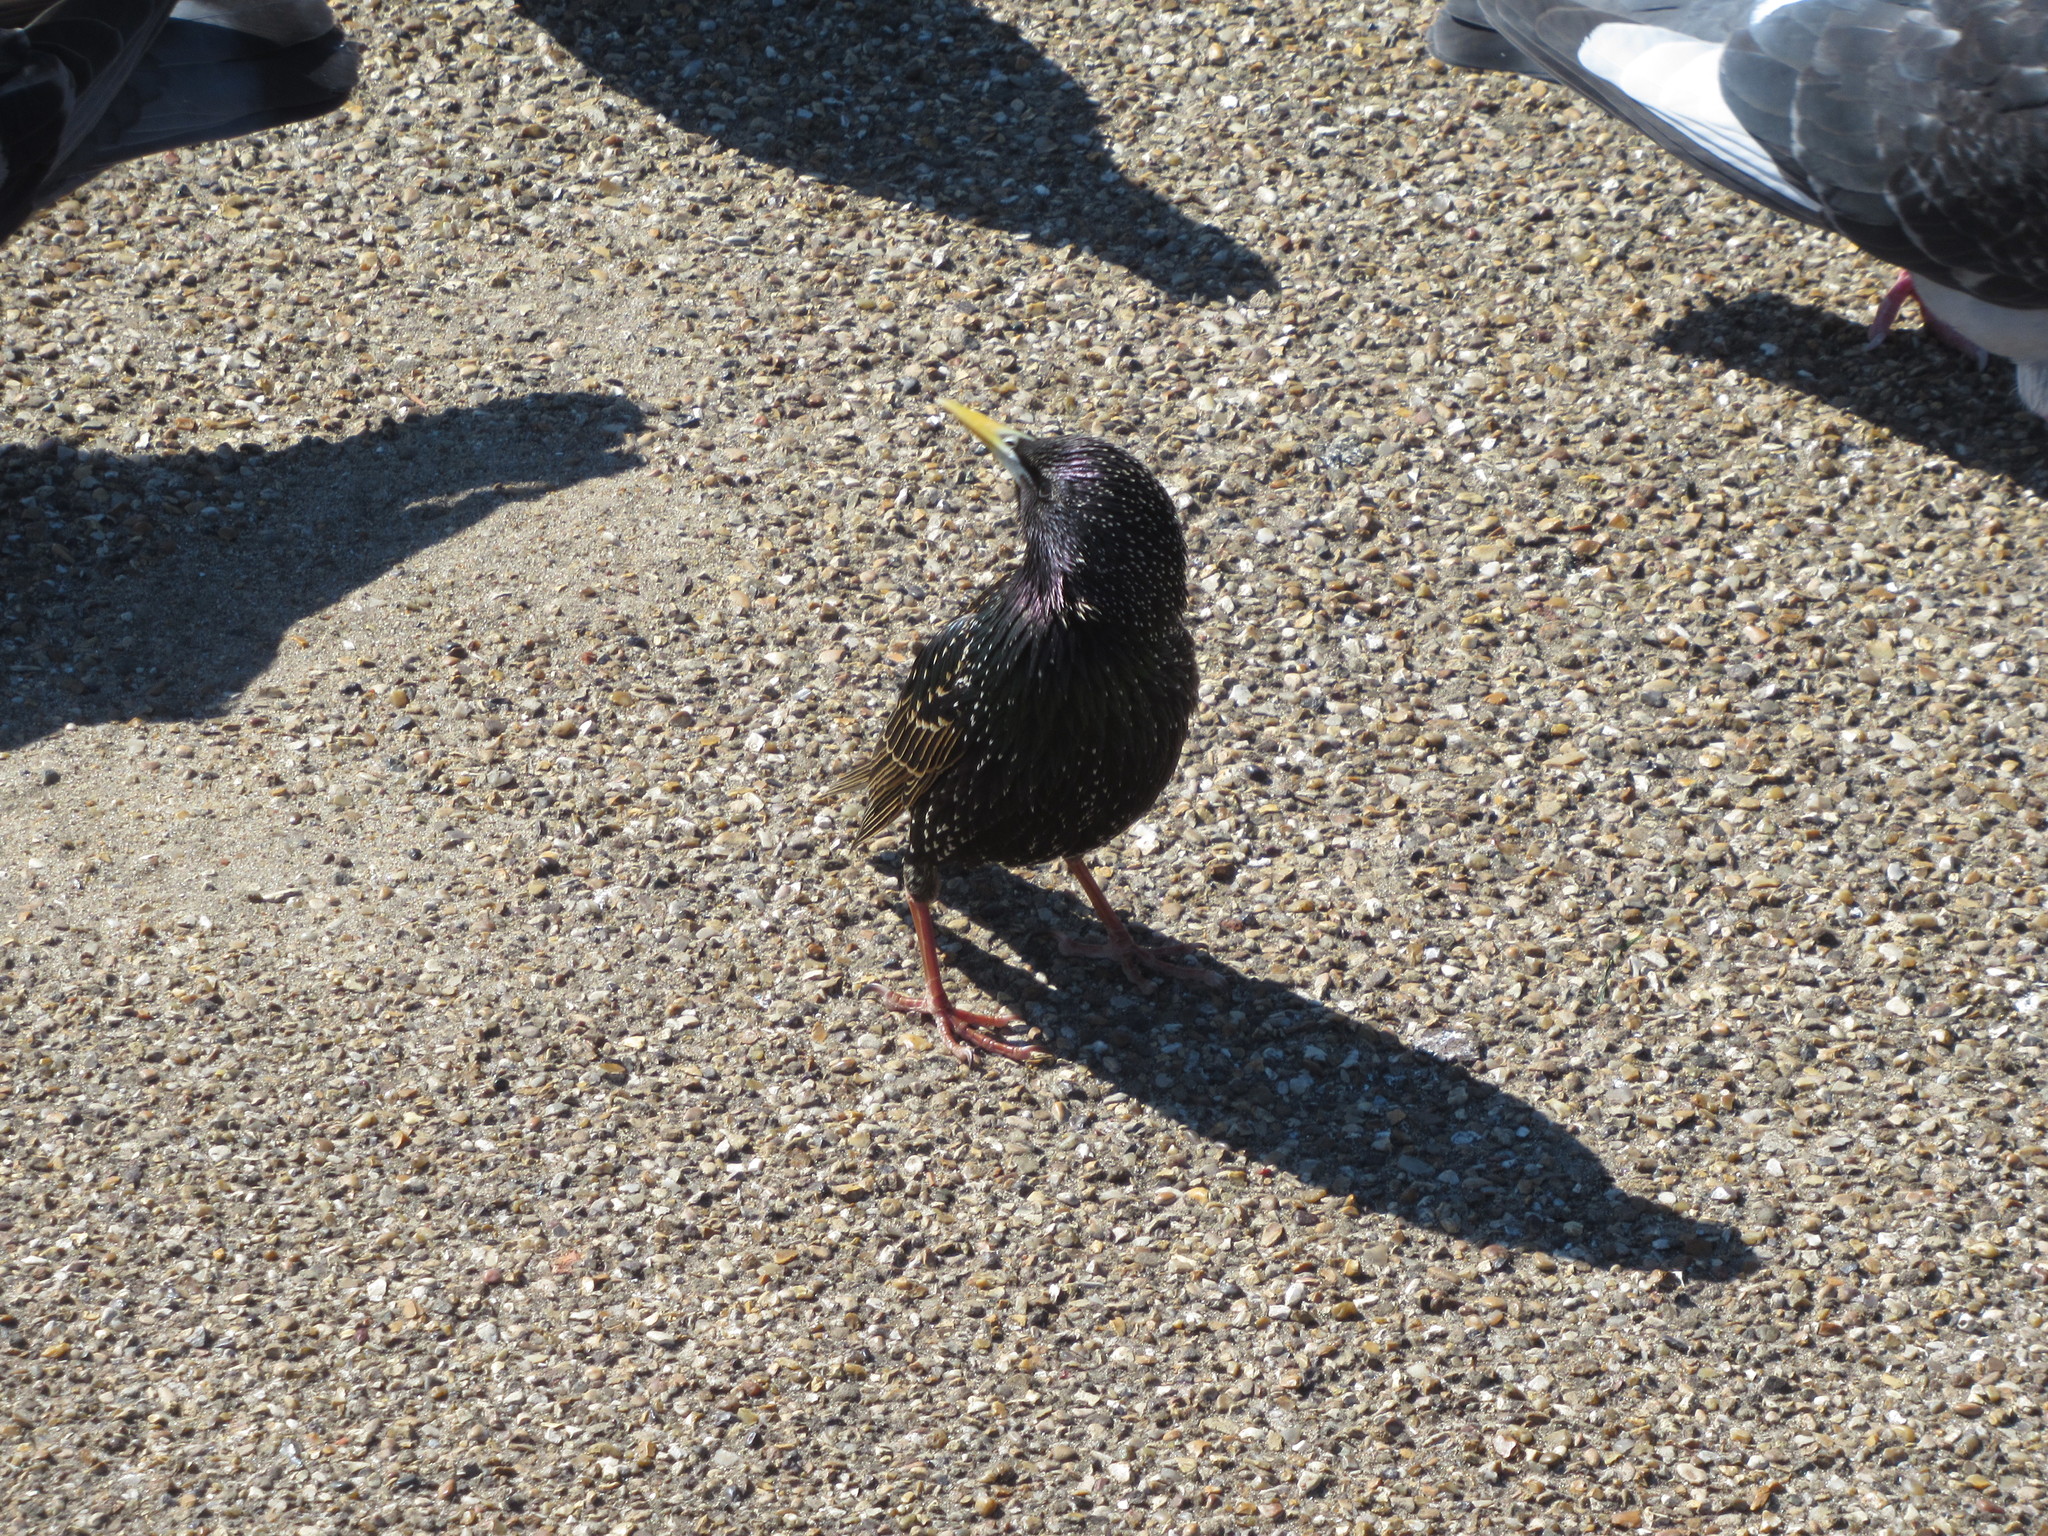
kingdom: Animalia
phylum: Chordata
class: Aves
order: Passeriformes
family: Sturnidae
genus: Sturnus
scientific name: Sturnus vulgaris
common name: Common starling
